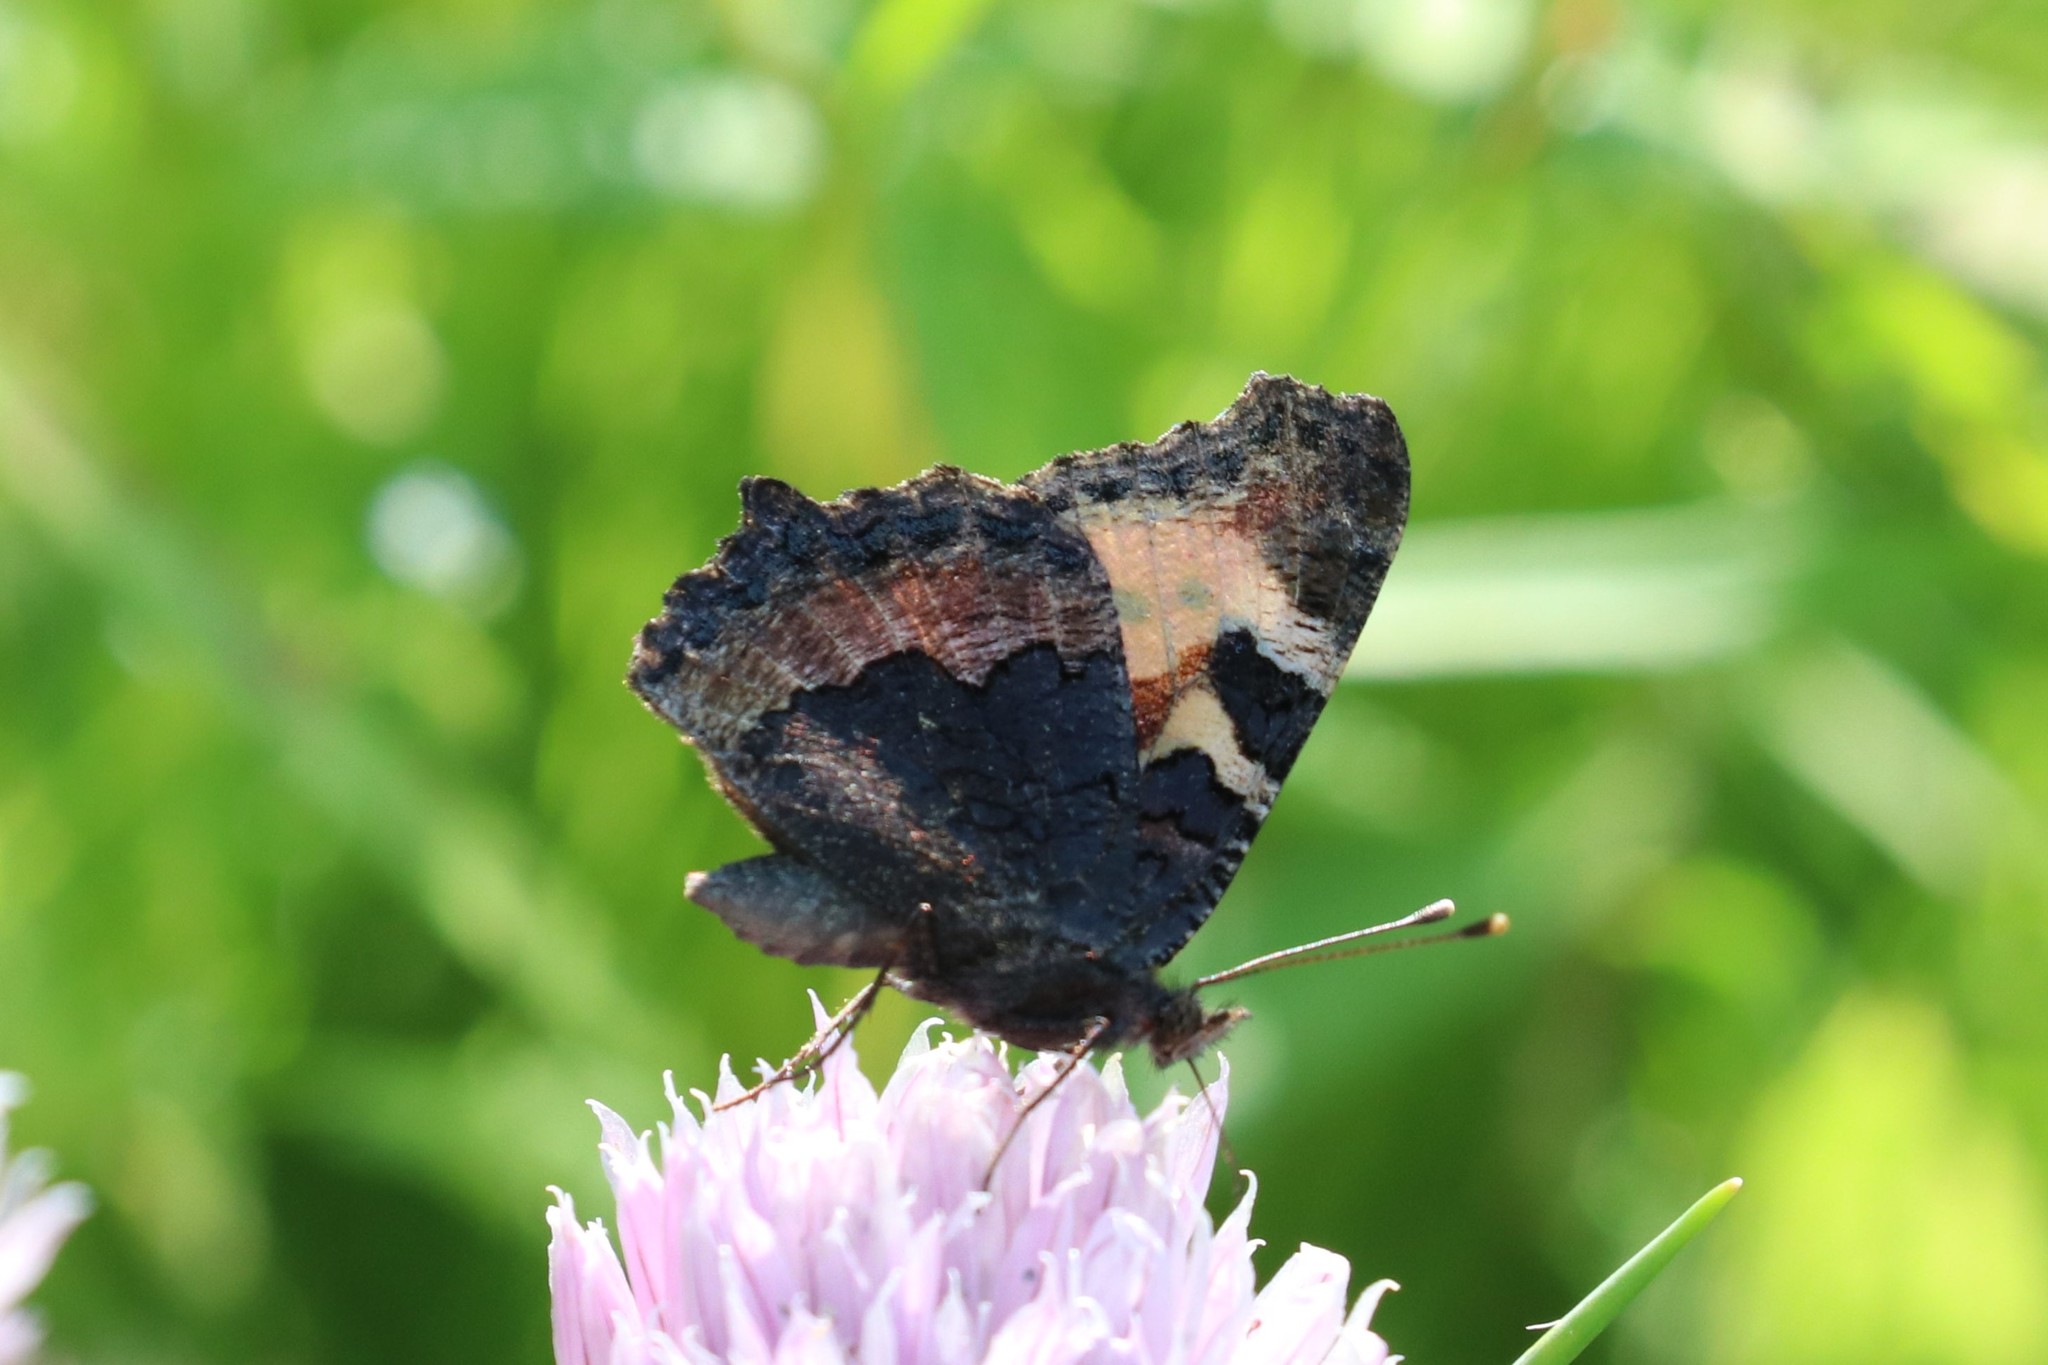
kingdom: Animalia
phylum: Arthropoda
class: Insecta
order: Lepidoptera
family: Nymphalidae
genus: Aglais
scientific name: Aglais urticae
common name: Small tortoiseshell
